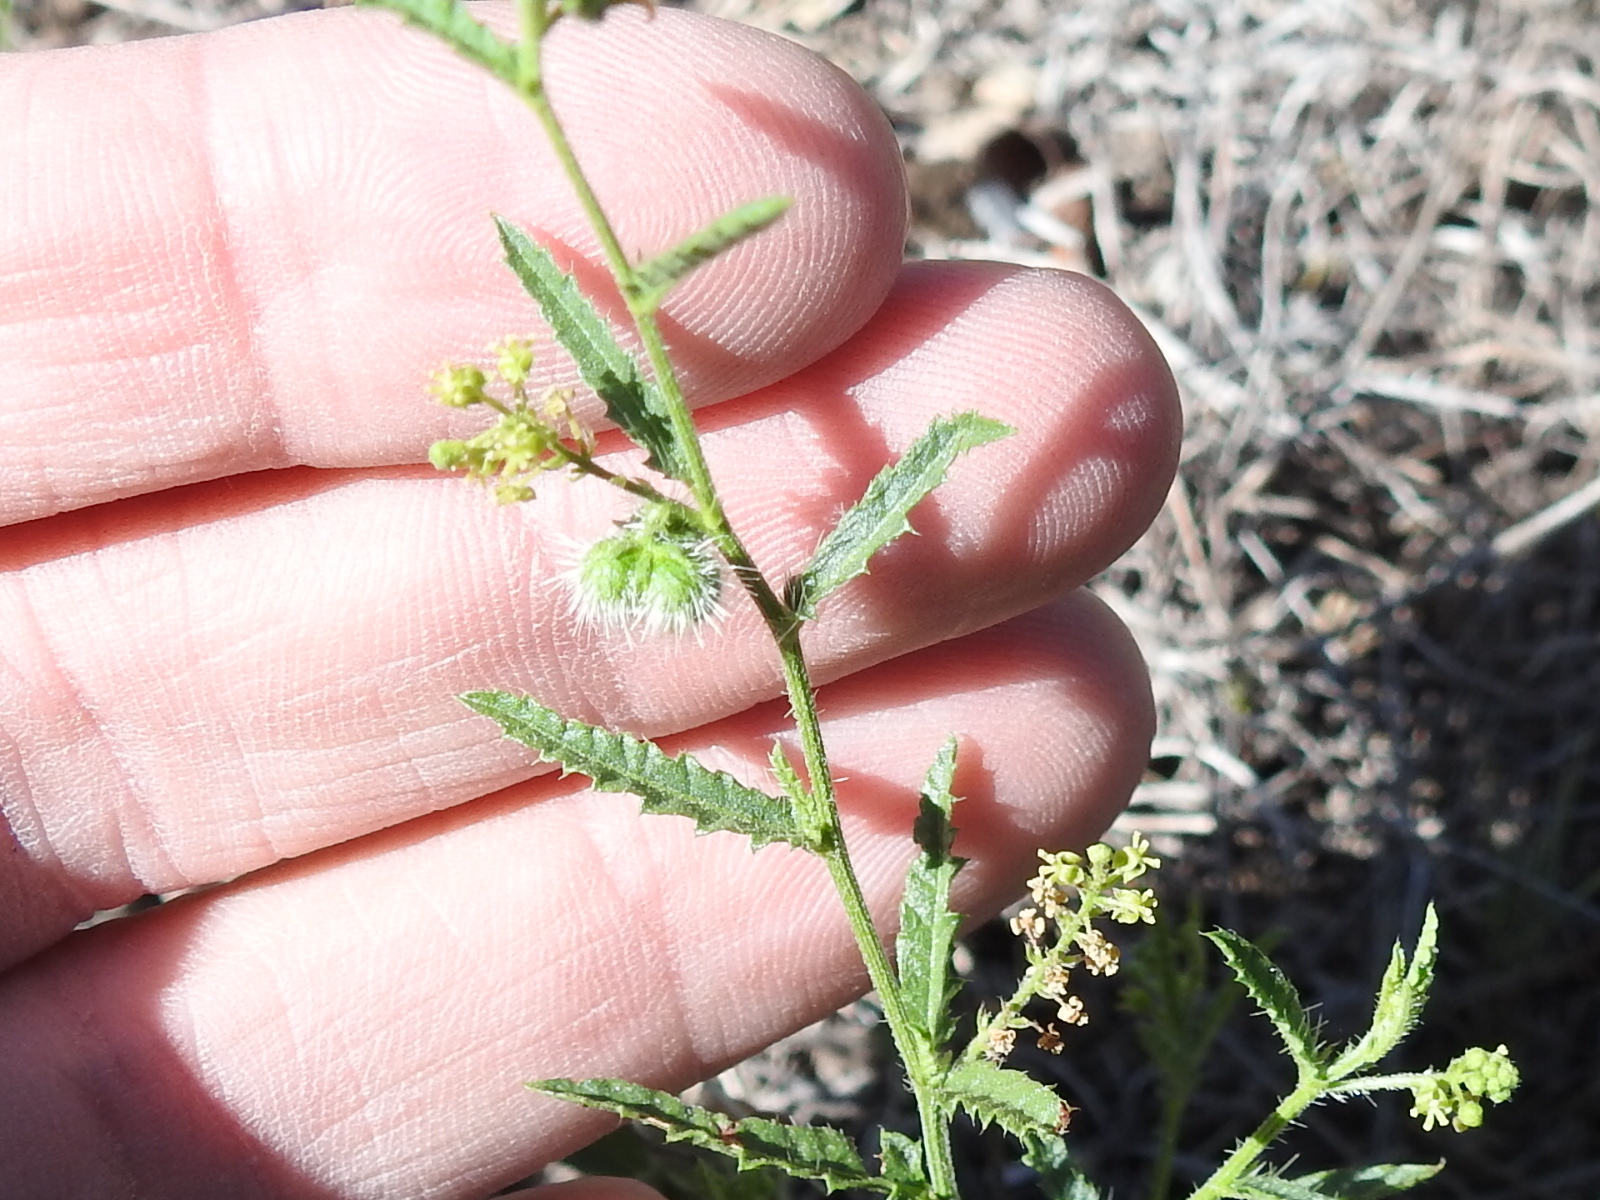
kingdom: Plantae
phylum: Tracheophyta
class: Magnoliopsida
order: Malpighiales
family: Euphorbiaceae
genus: Tragia
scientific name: Tragia ramosa
